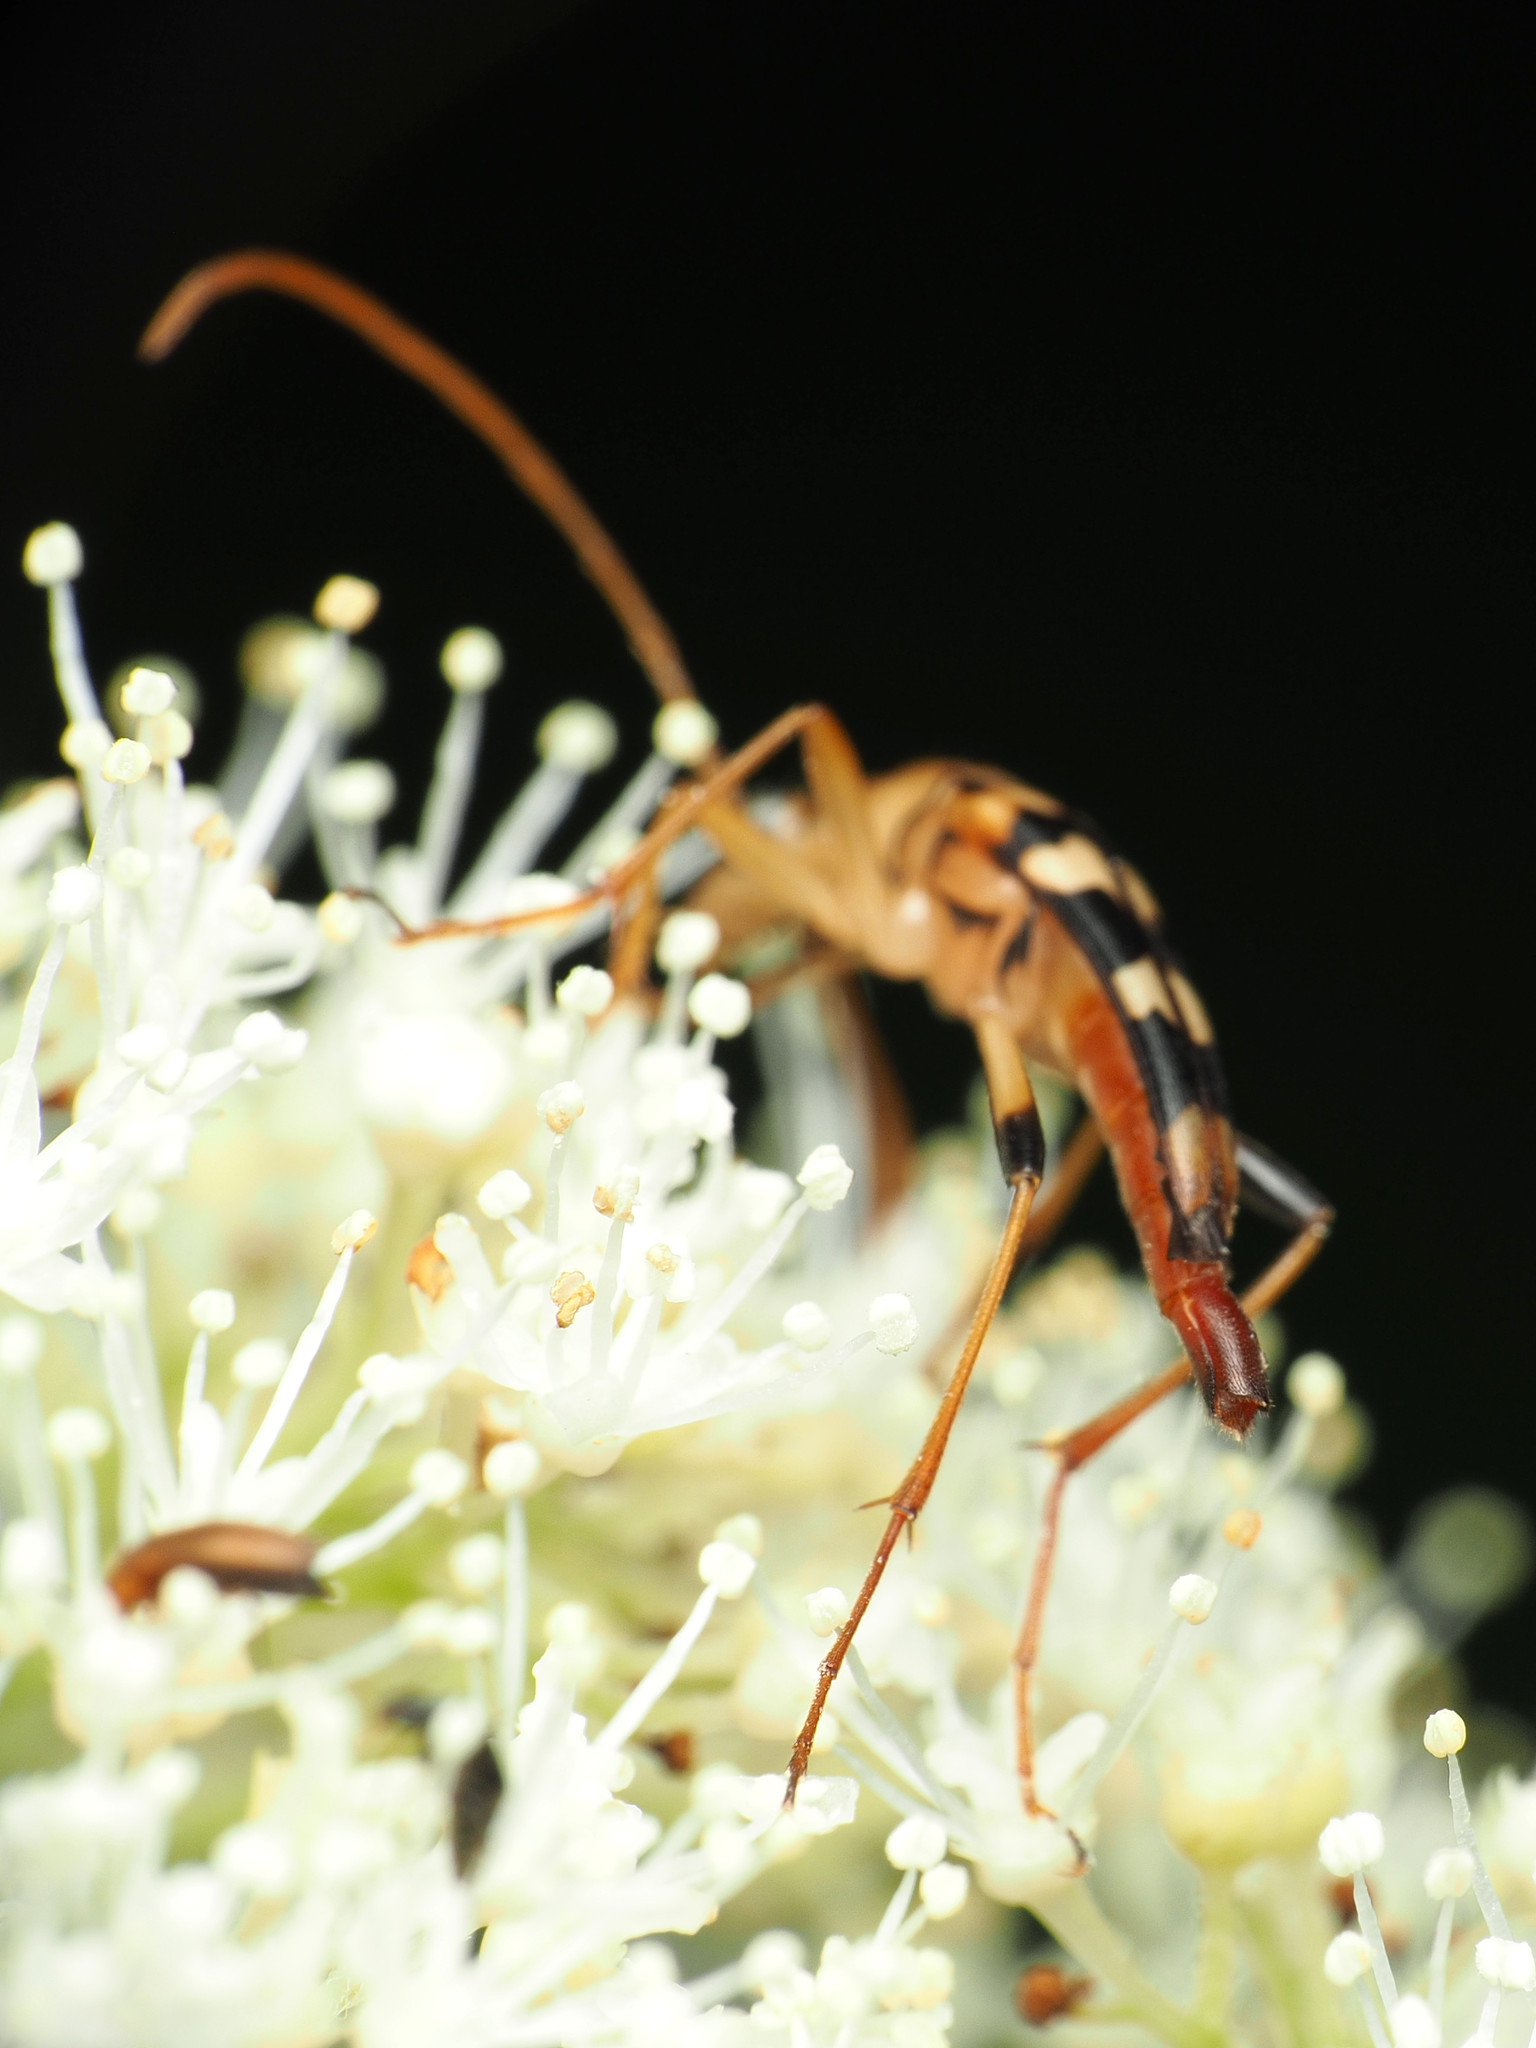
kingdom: Animalia
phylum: Arthropoda
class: Insecta
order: Coleoptera
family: Cerambycidae
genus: Strangalia
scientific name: Strangalia luteicornis
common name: Yellow-horned flower longhorn beetle
